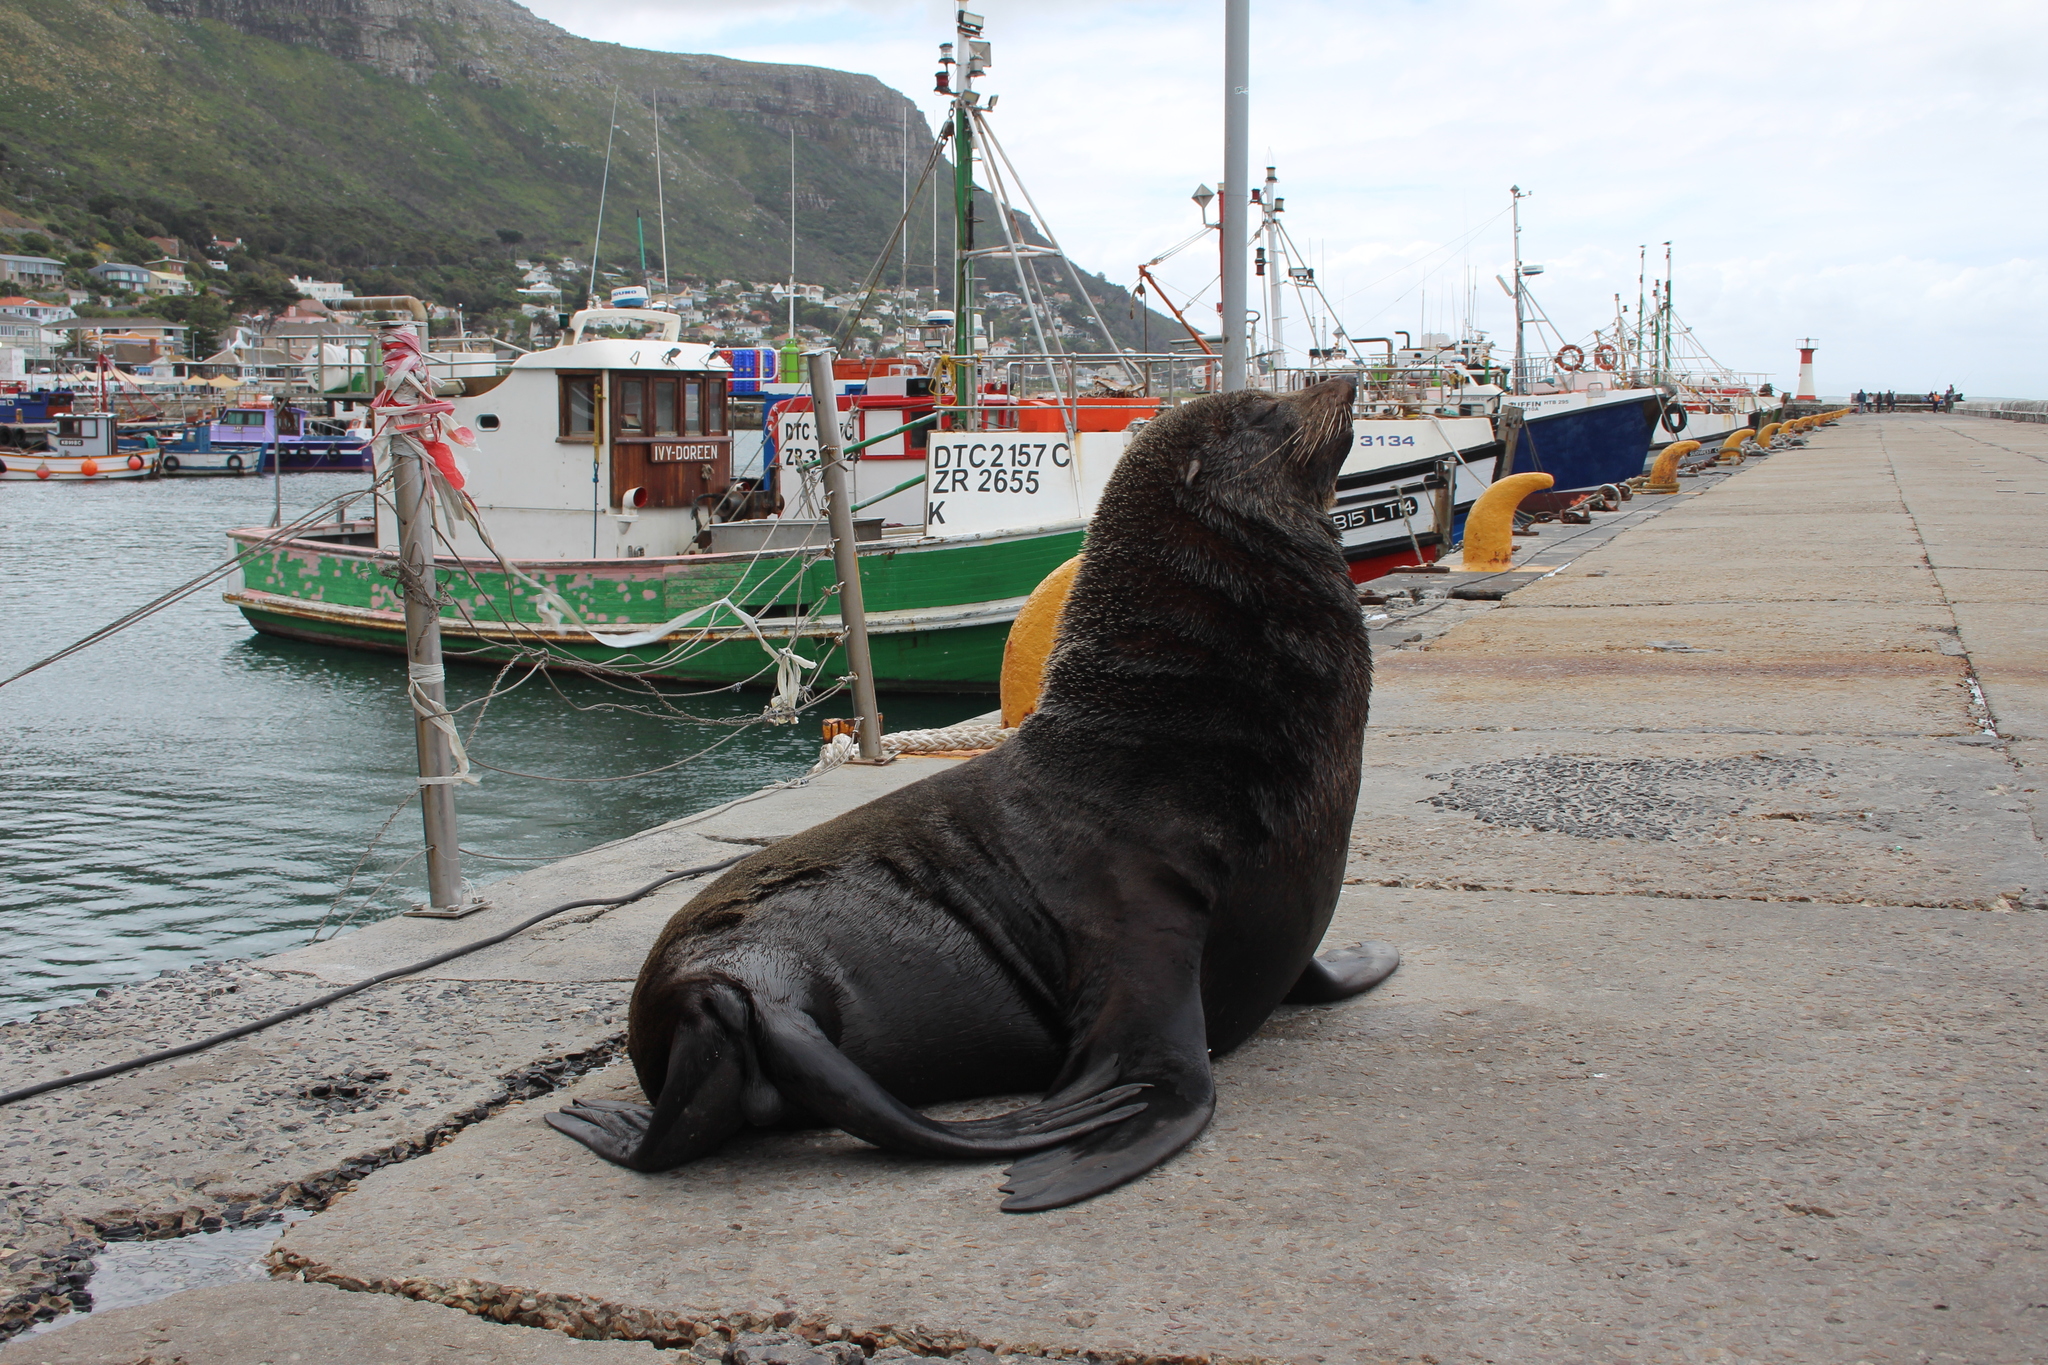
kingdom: Animalia
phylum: Chordata
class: Mammalia
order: Carnivora
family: Otariidae
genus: Arctocephalus
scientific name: Arctocephalus pusillus
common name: Brown fur seal
